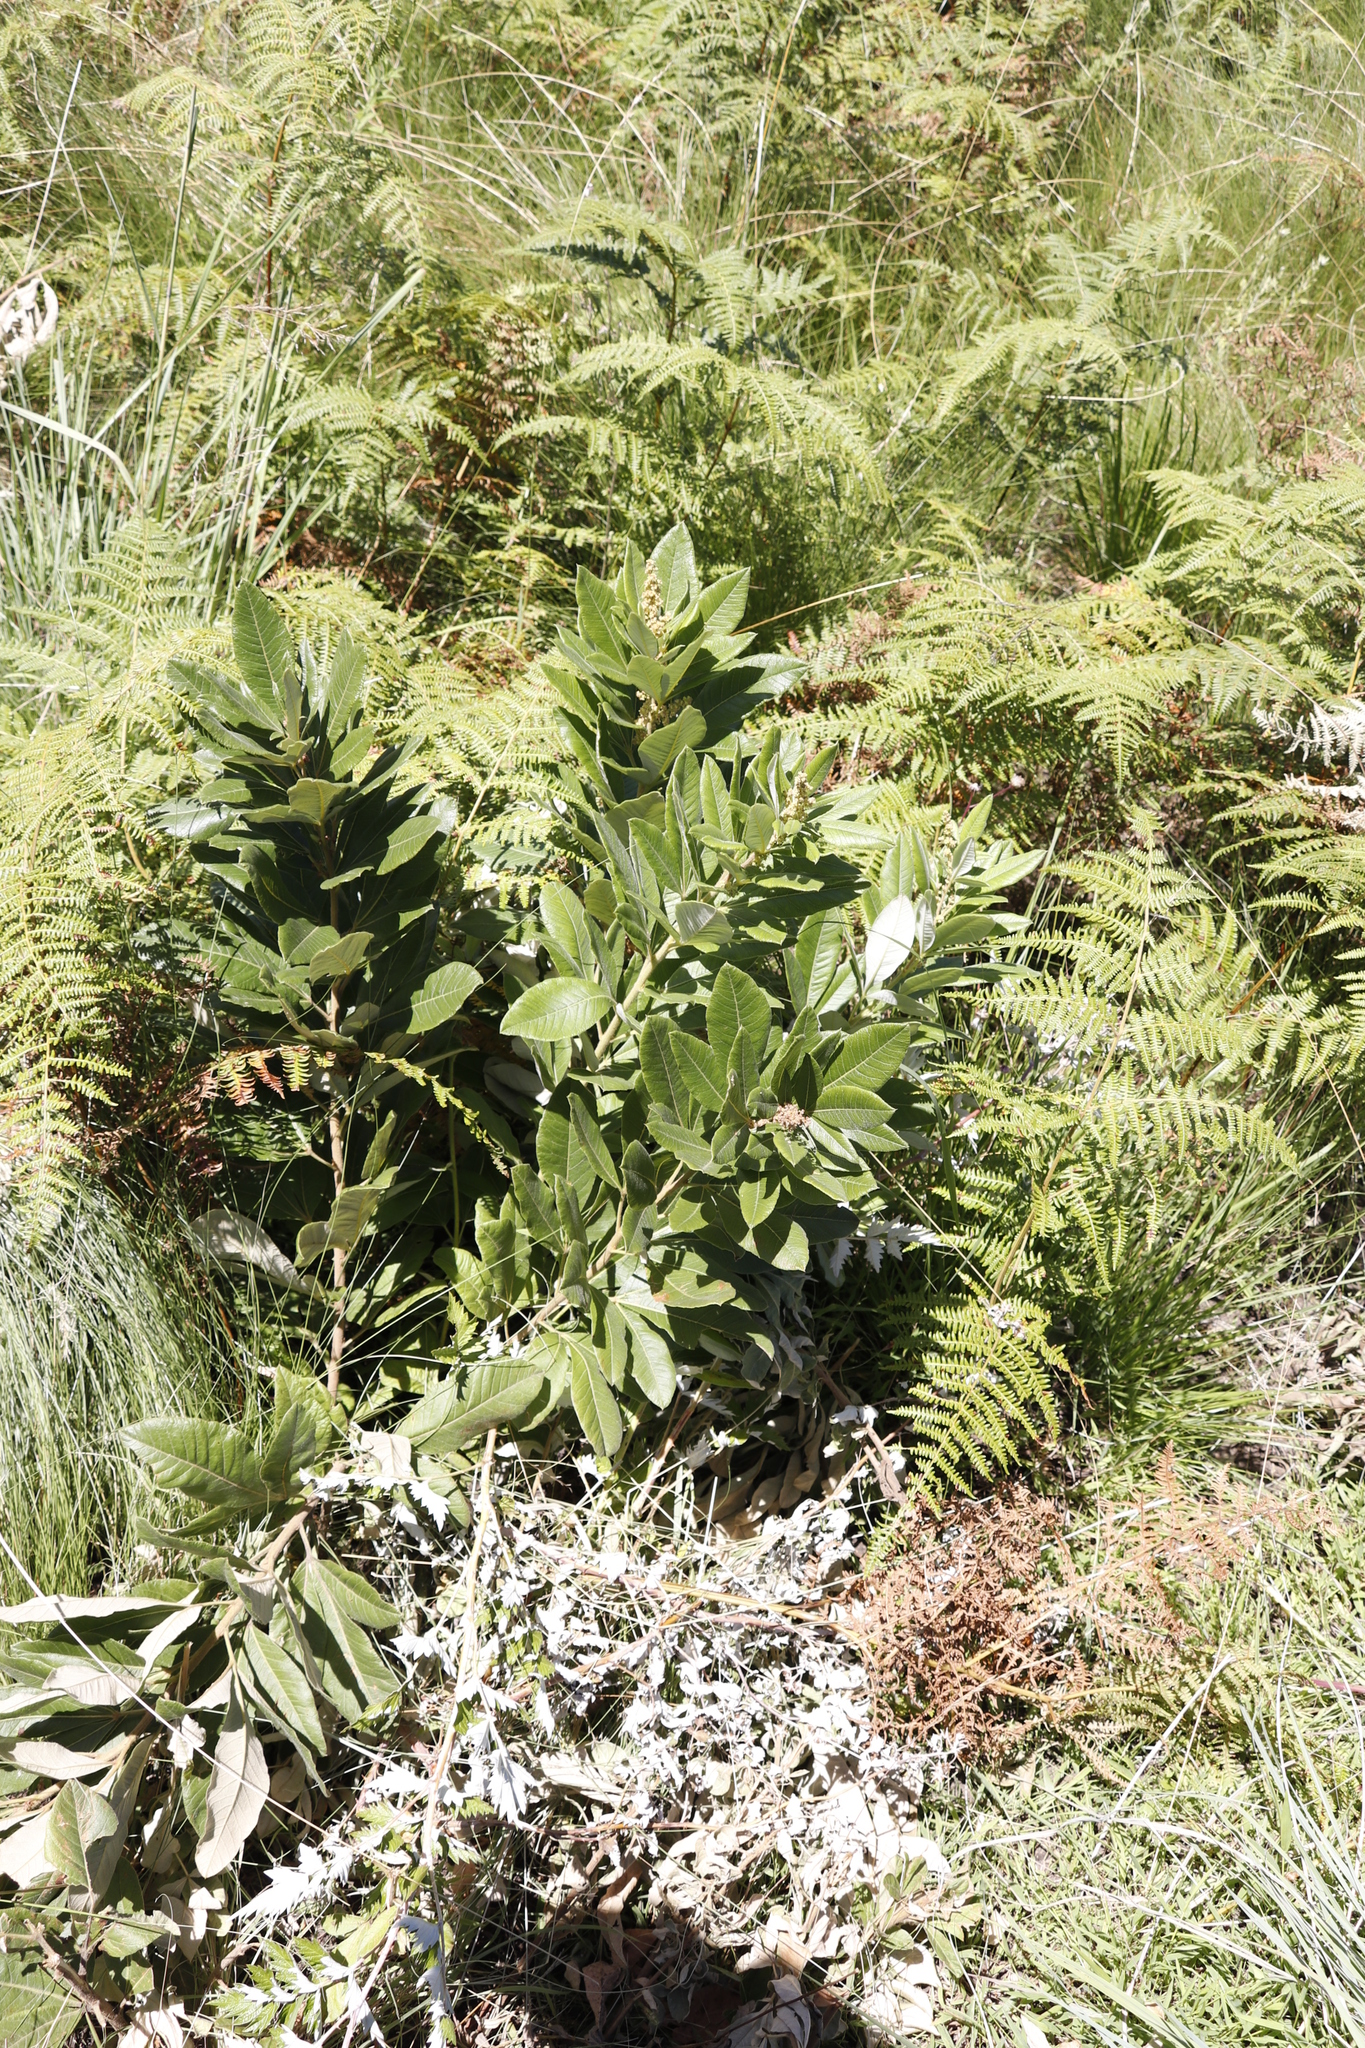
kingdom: Plantae
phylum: Tracheophyta
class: Magnoliopsida
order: Sapindales
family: Anacardiaceae
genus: Searsia
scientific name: Searsia discolor
